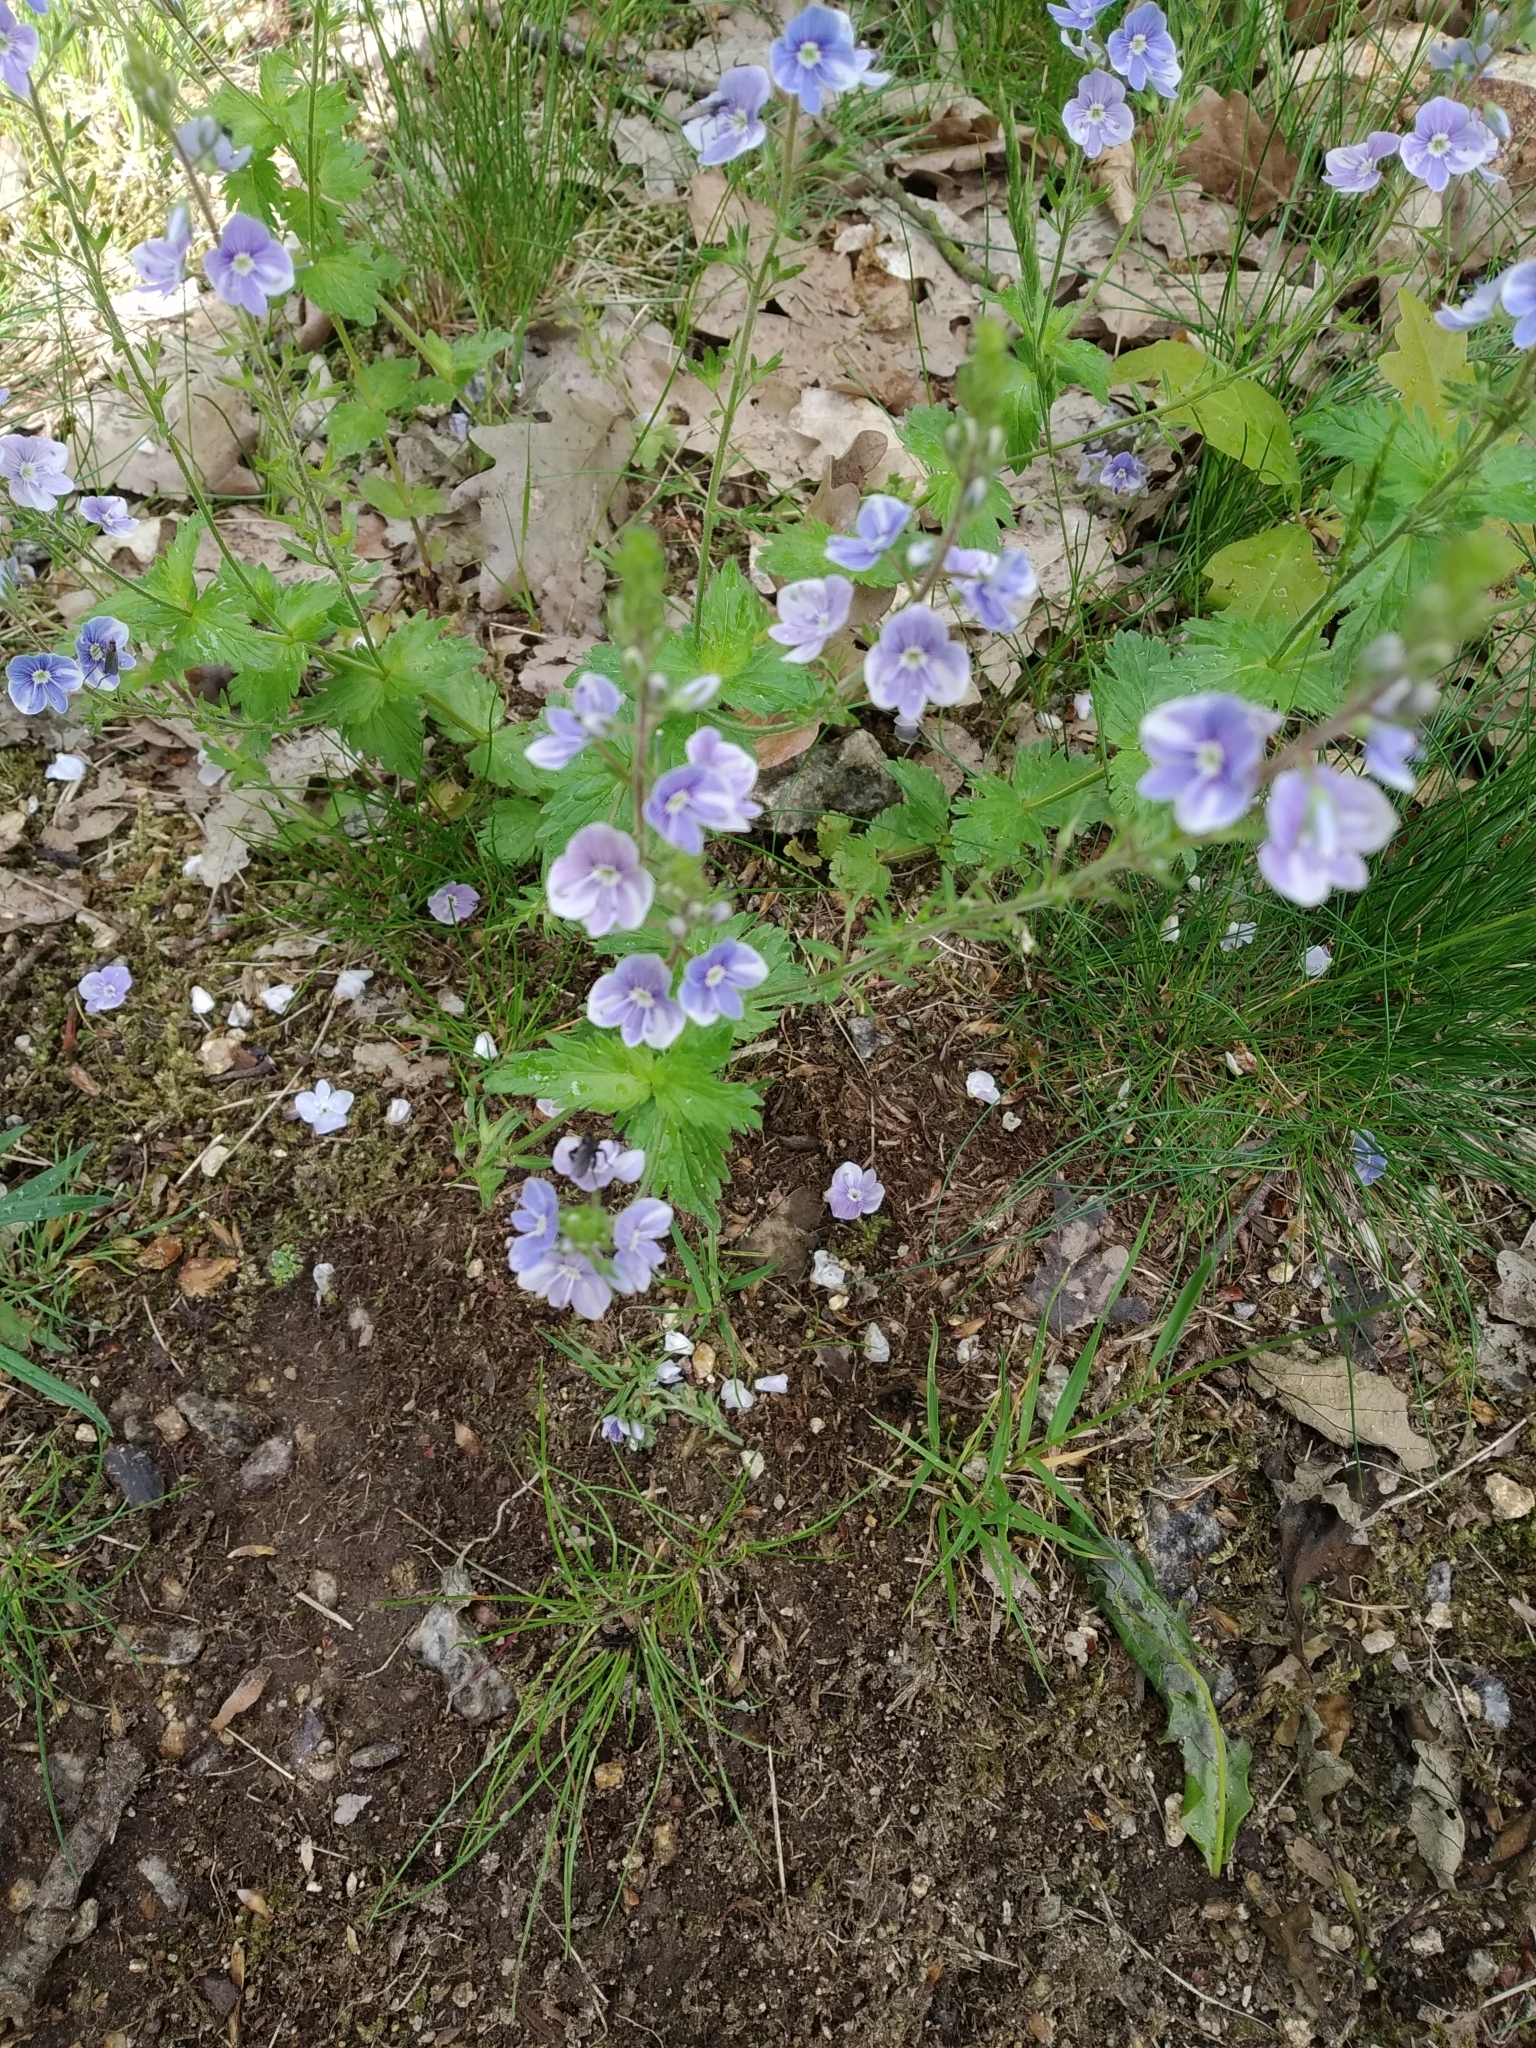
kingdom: Plantae
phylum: Tracheophyta
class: Magnoliopsida
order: Lamiales
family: Plantaginaceae
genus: Veronica
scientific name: Veronica chamaedrys
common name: Germander speedwell
